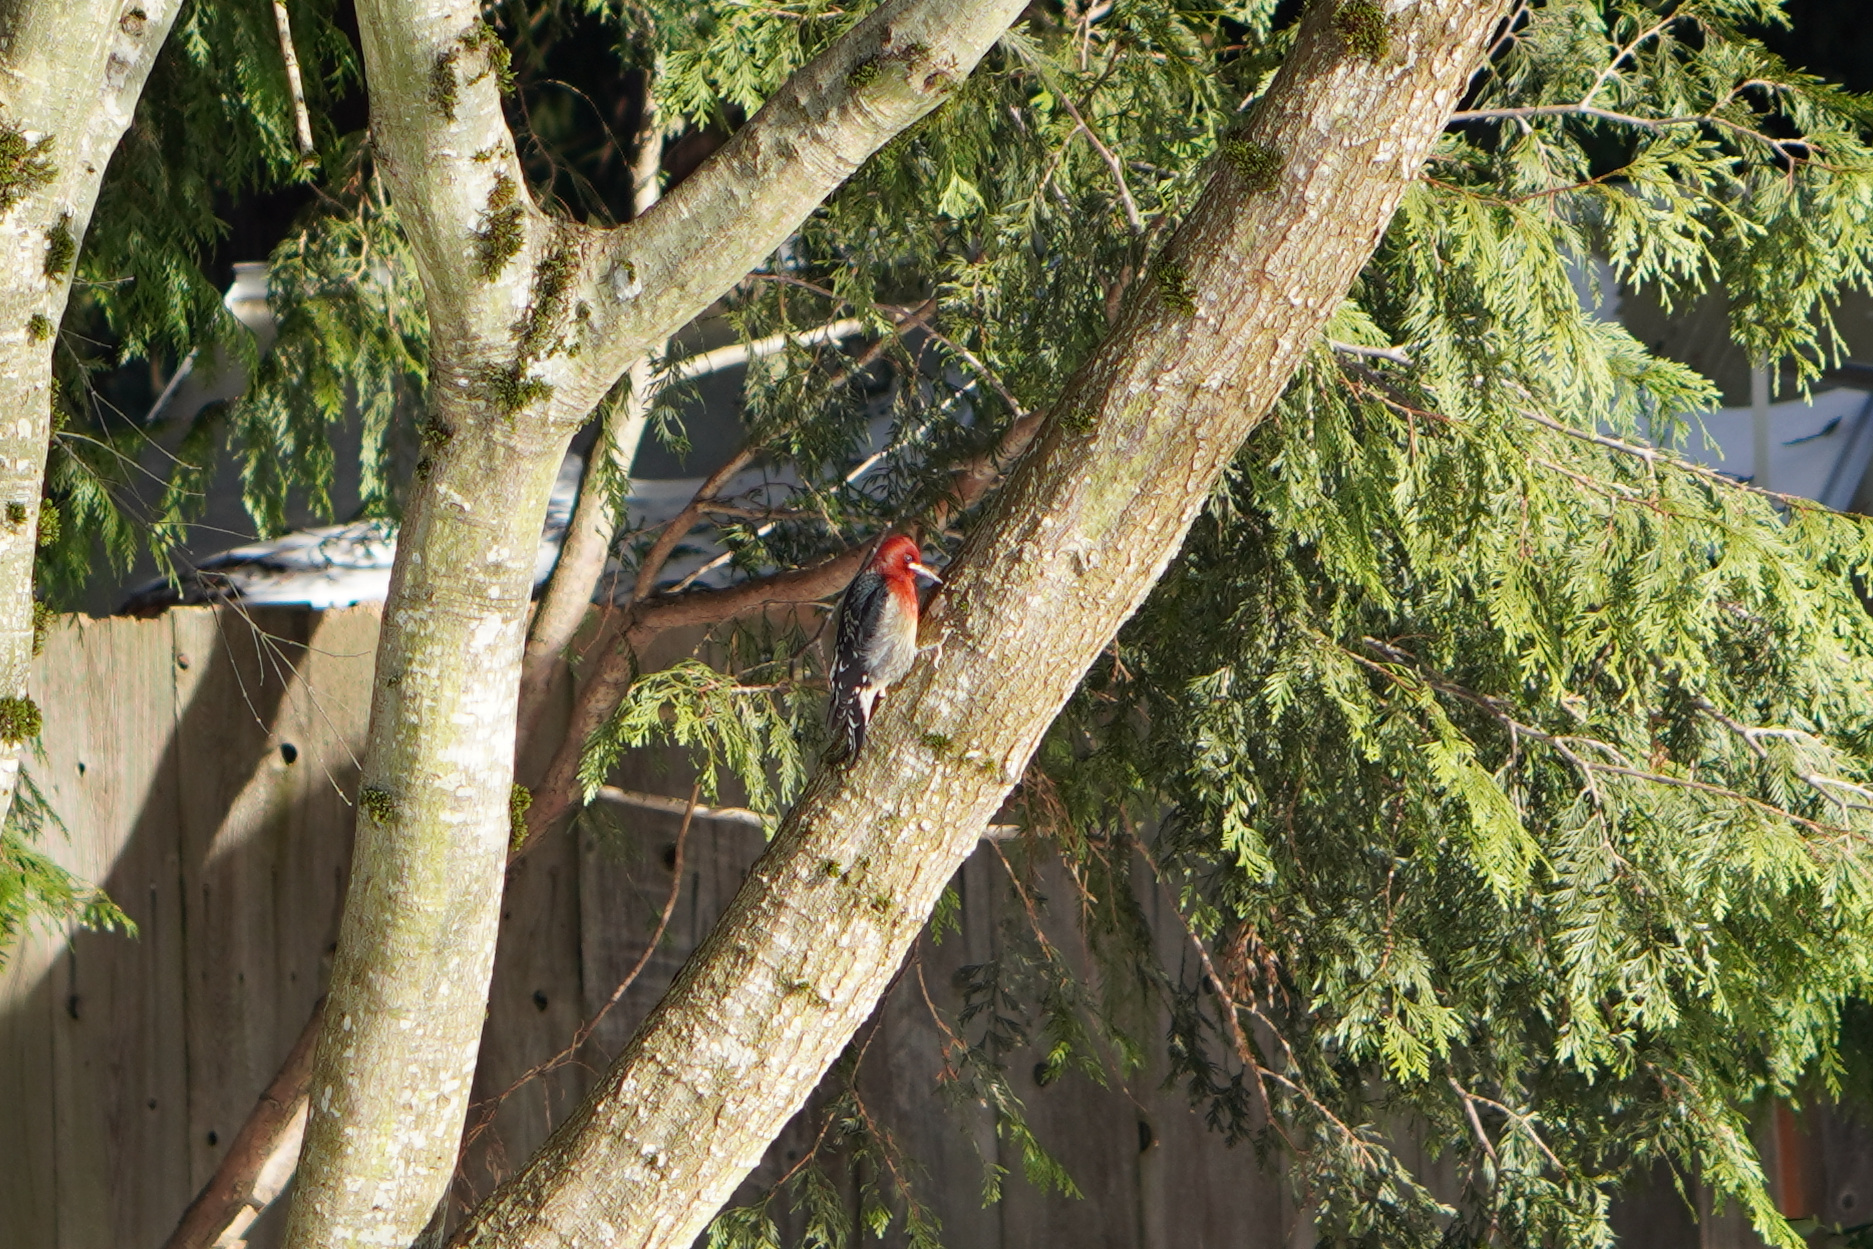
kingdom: Animalia
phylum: Chordata
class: Aves
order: Piciformes
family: Picidae
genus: Sphyrapicus
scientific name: Sphyrapicus ruber
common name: Red-breasted sapsucker
